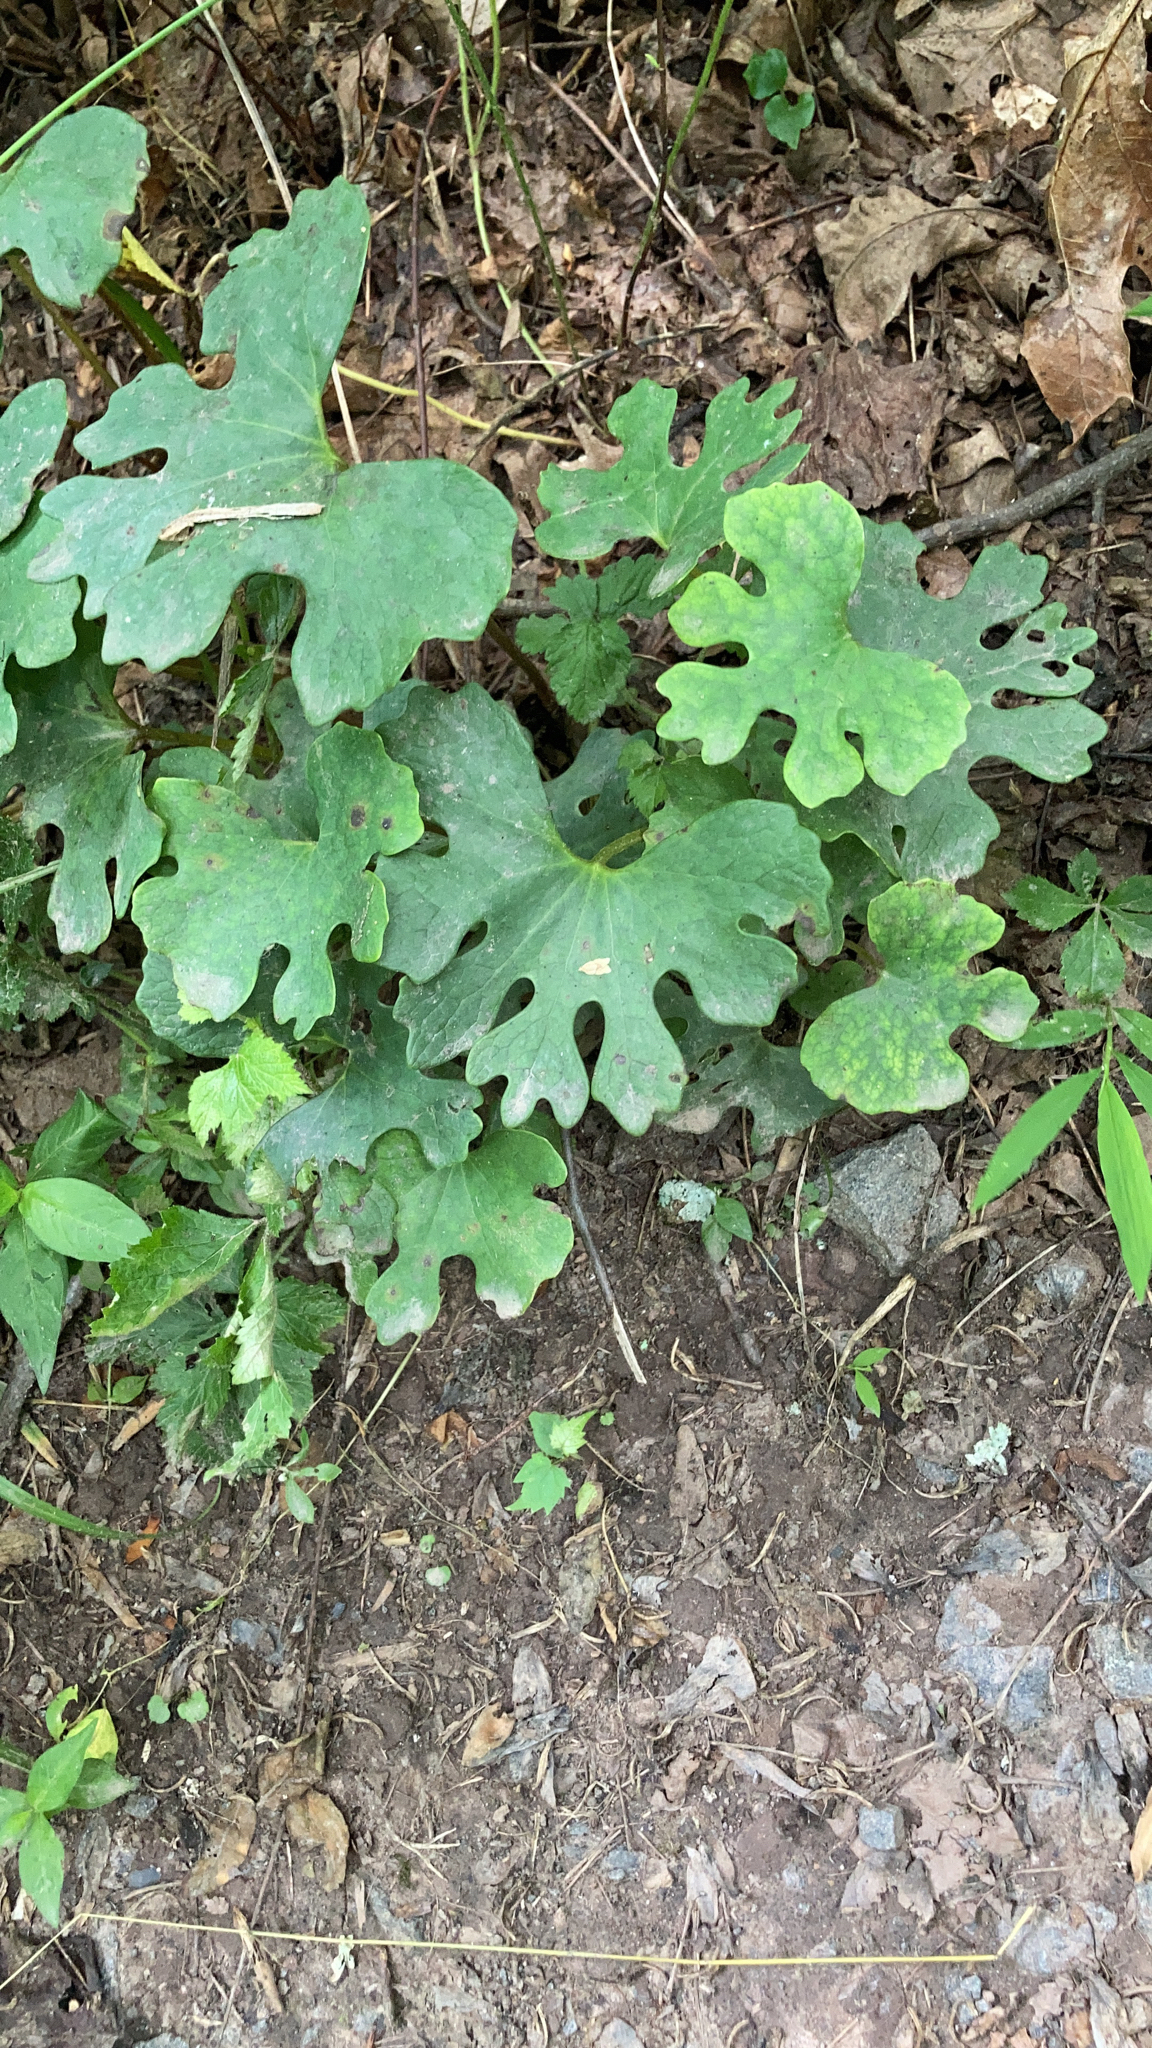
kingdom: Plantae
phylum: Tracheophyta
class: Magnoliopsida
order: Ranunculales
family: Papaveraceae
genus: Sanguinaria
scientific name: Sanguinaria canadensis
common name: Bloodroot
